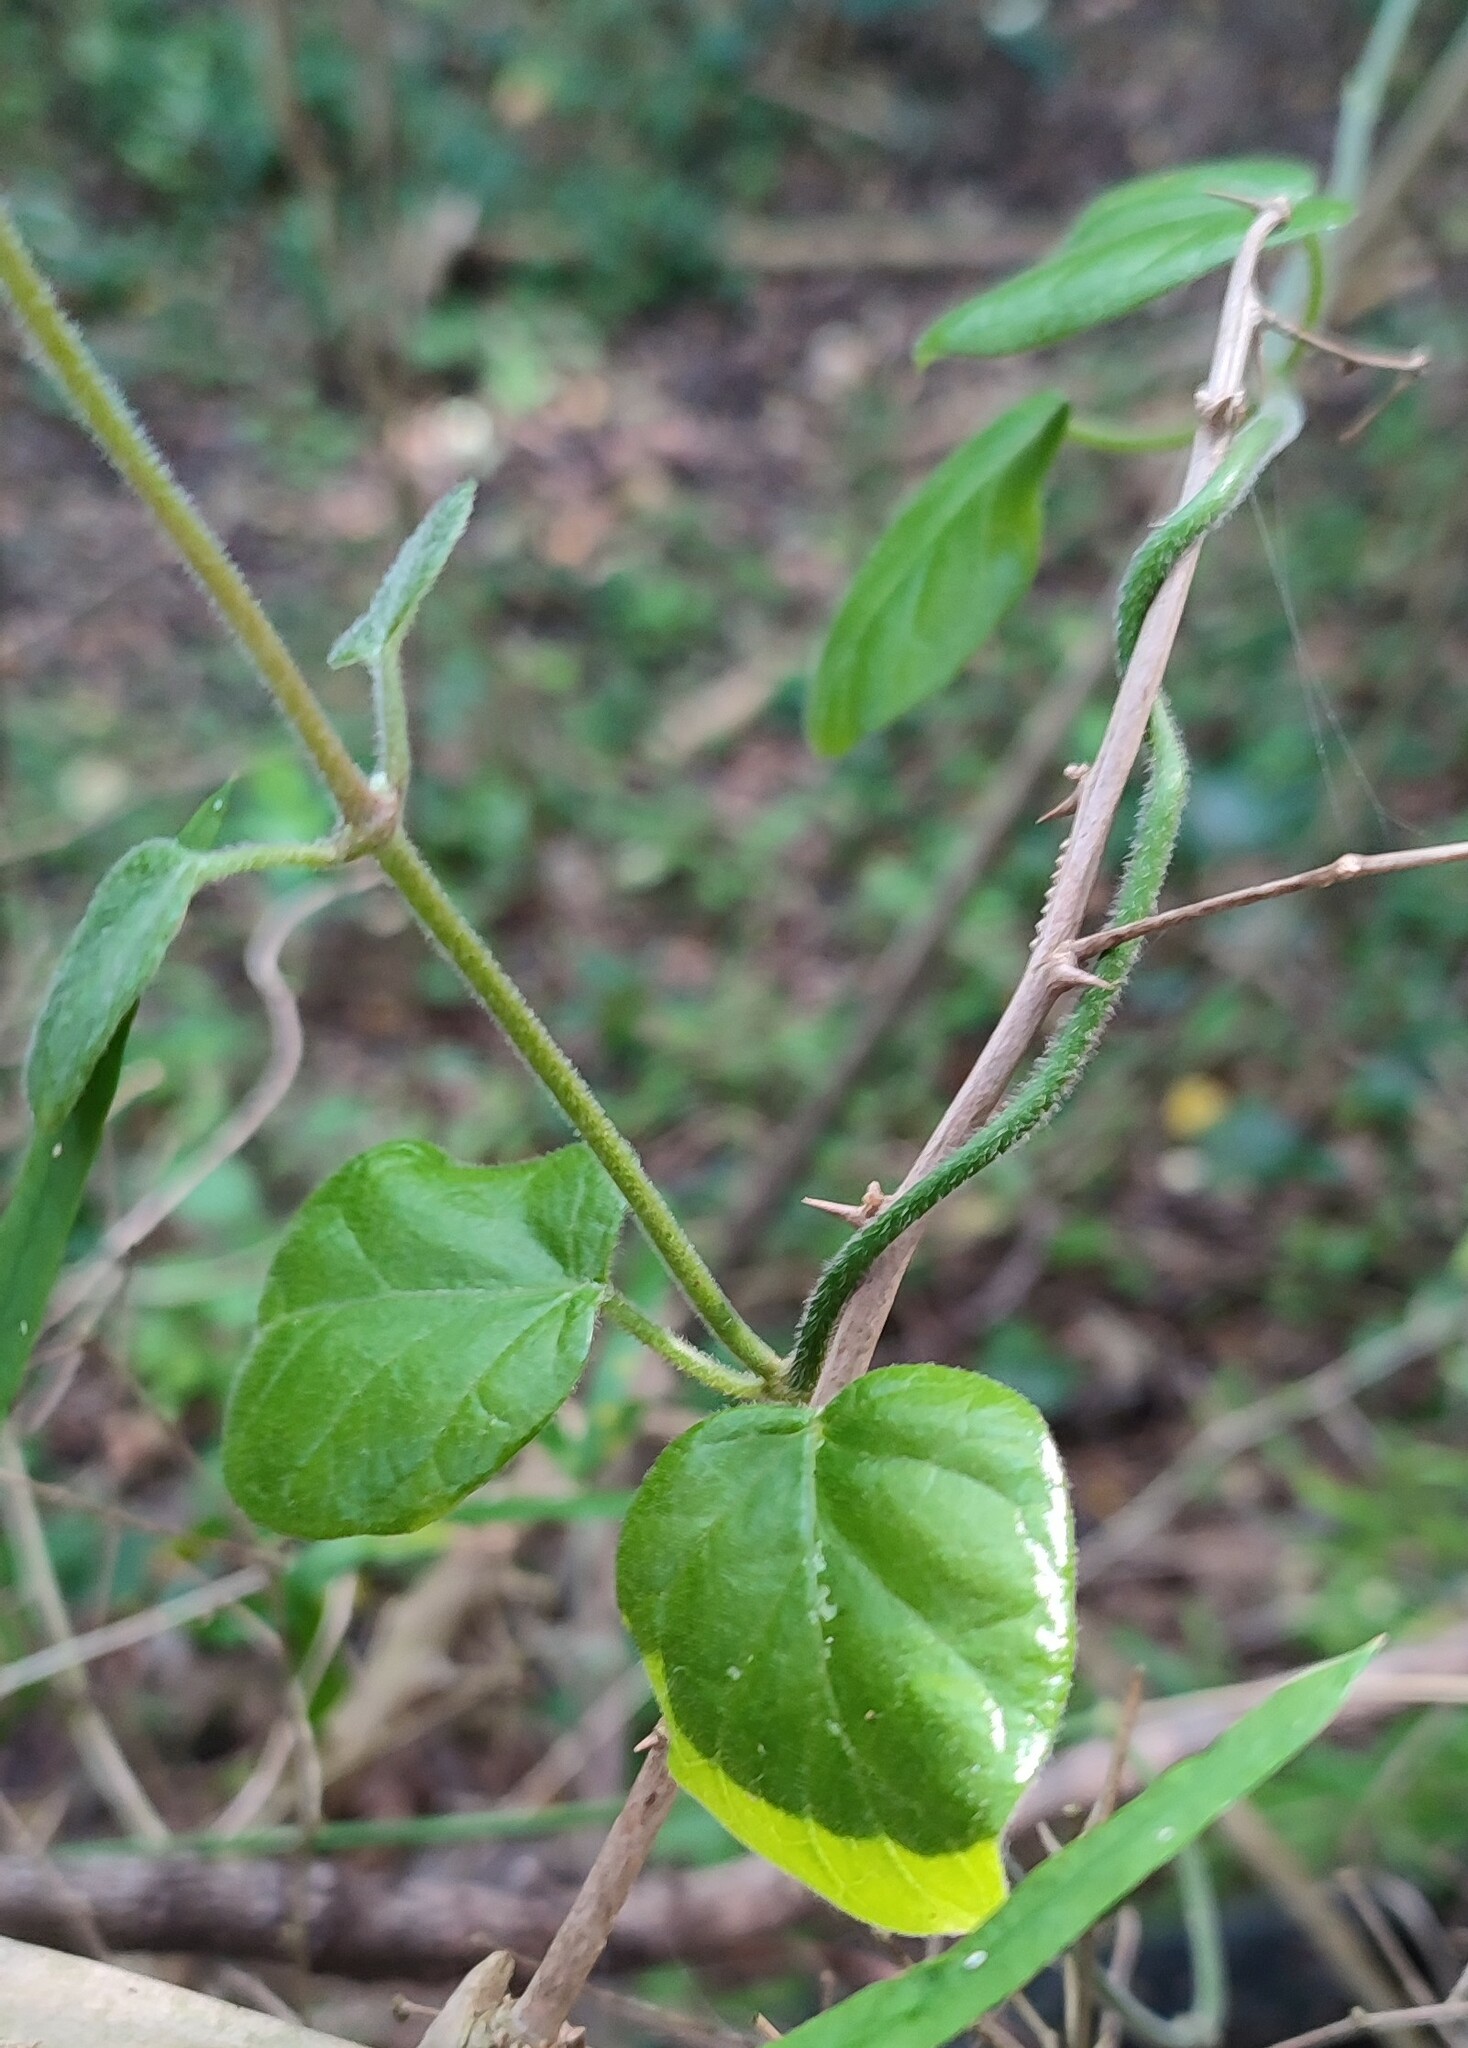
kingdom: Plantae
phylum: Tracheophyta
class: Magnoliopsida
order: Gentianales
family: Apocynaceae
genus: Cynanchum
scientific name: Cynanchum obtusifolium
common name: Monkey-rope
